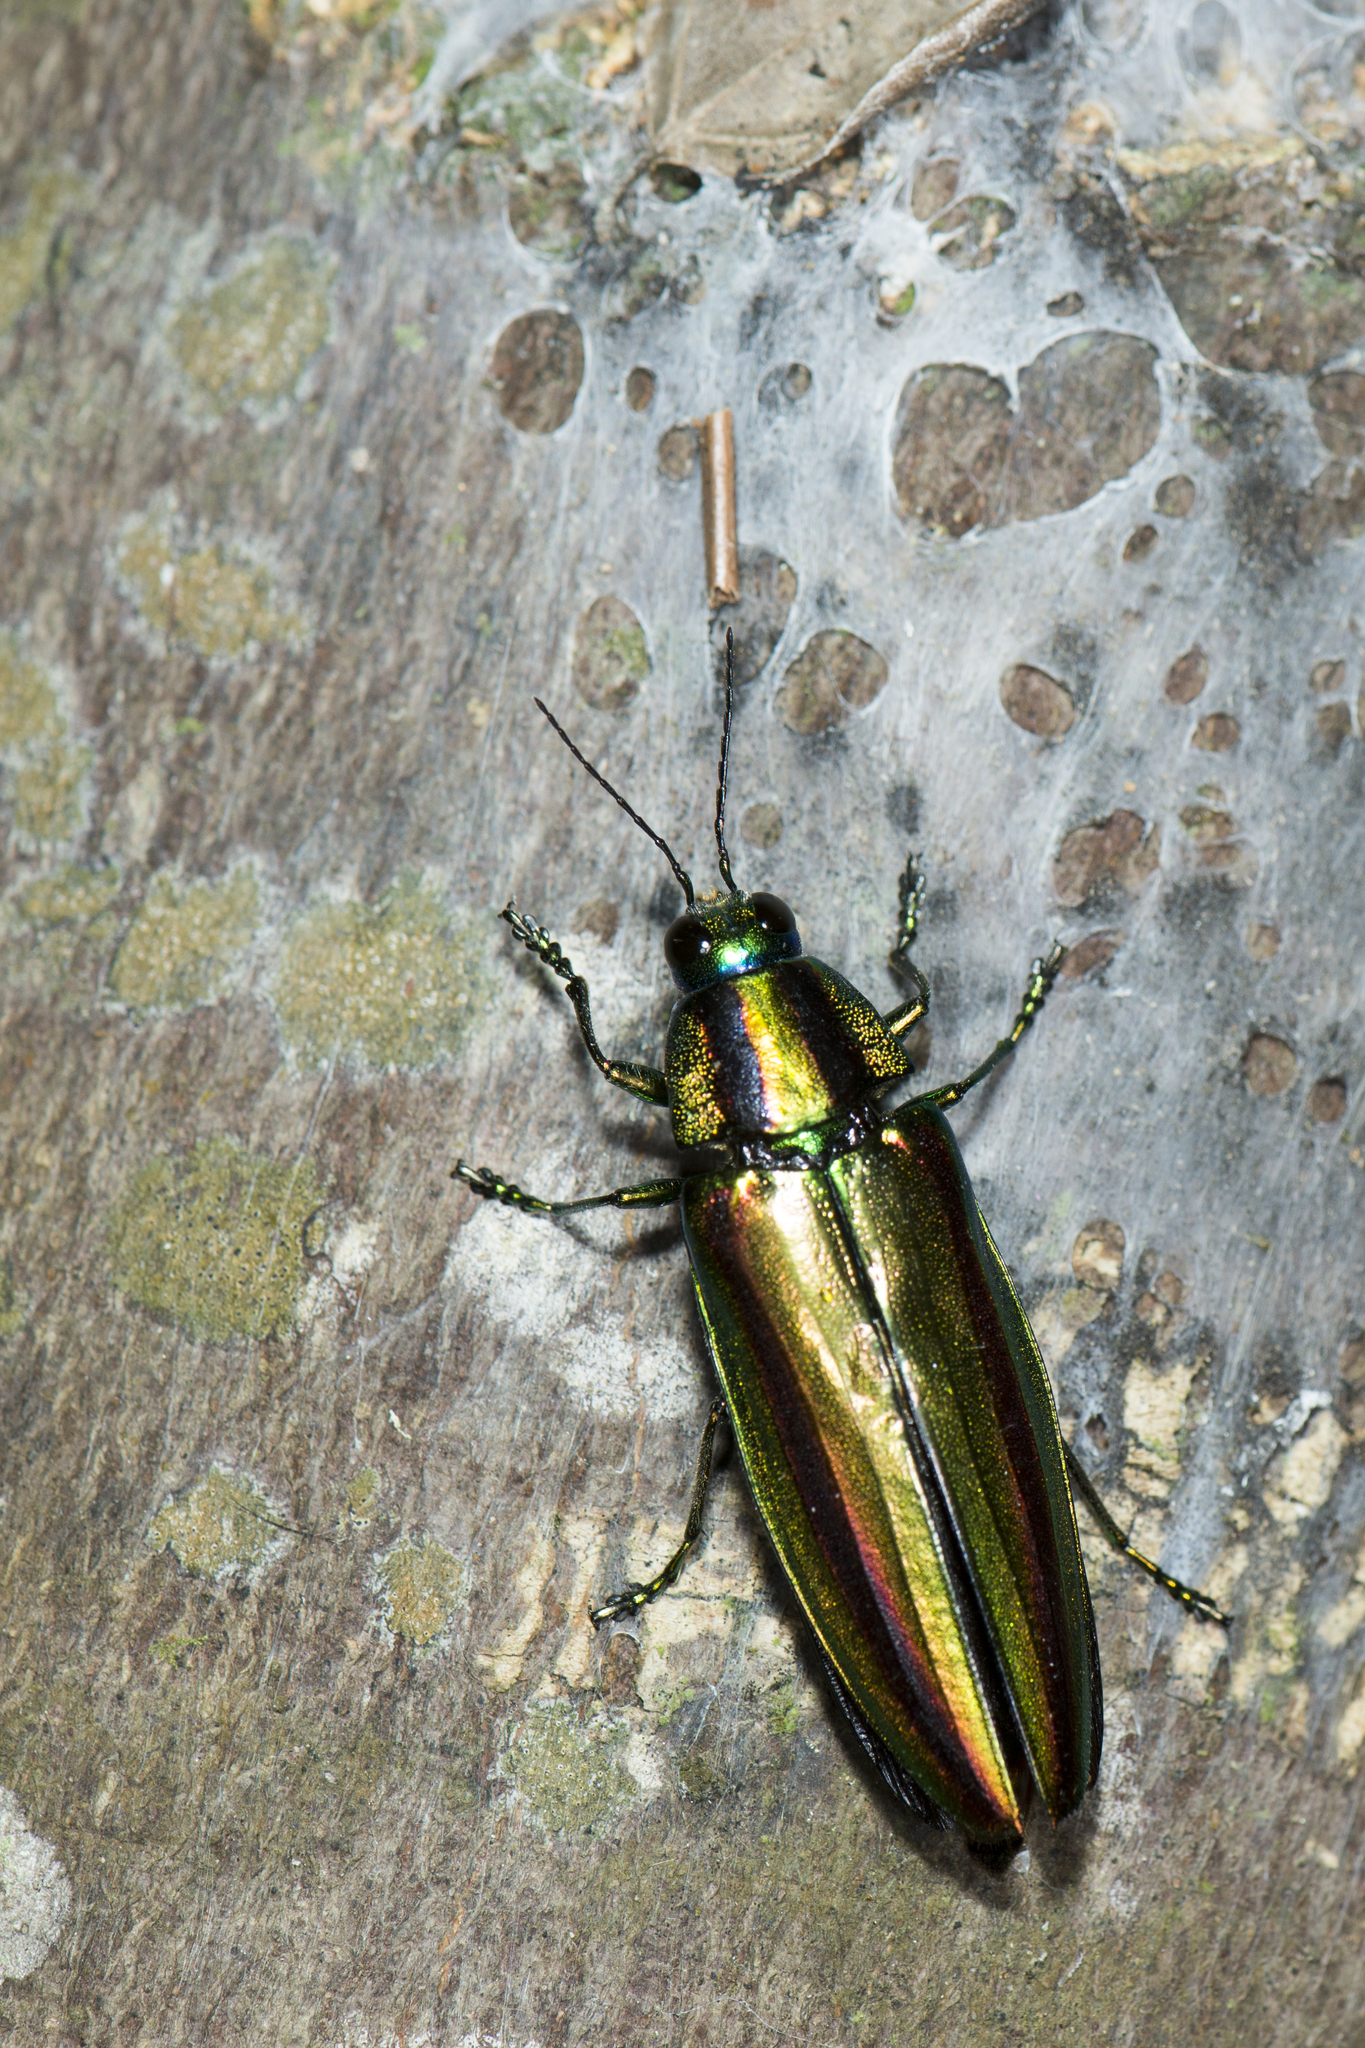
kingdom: Animalia
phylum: Arthropoda
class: Insecta
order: Coleoptera
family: Buprestidae
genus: Chrysochroa
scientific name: Chrysochroa fulgidissima
